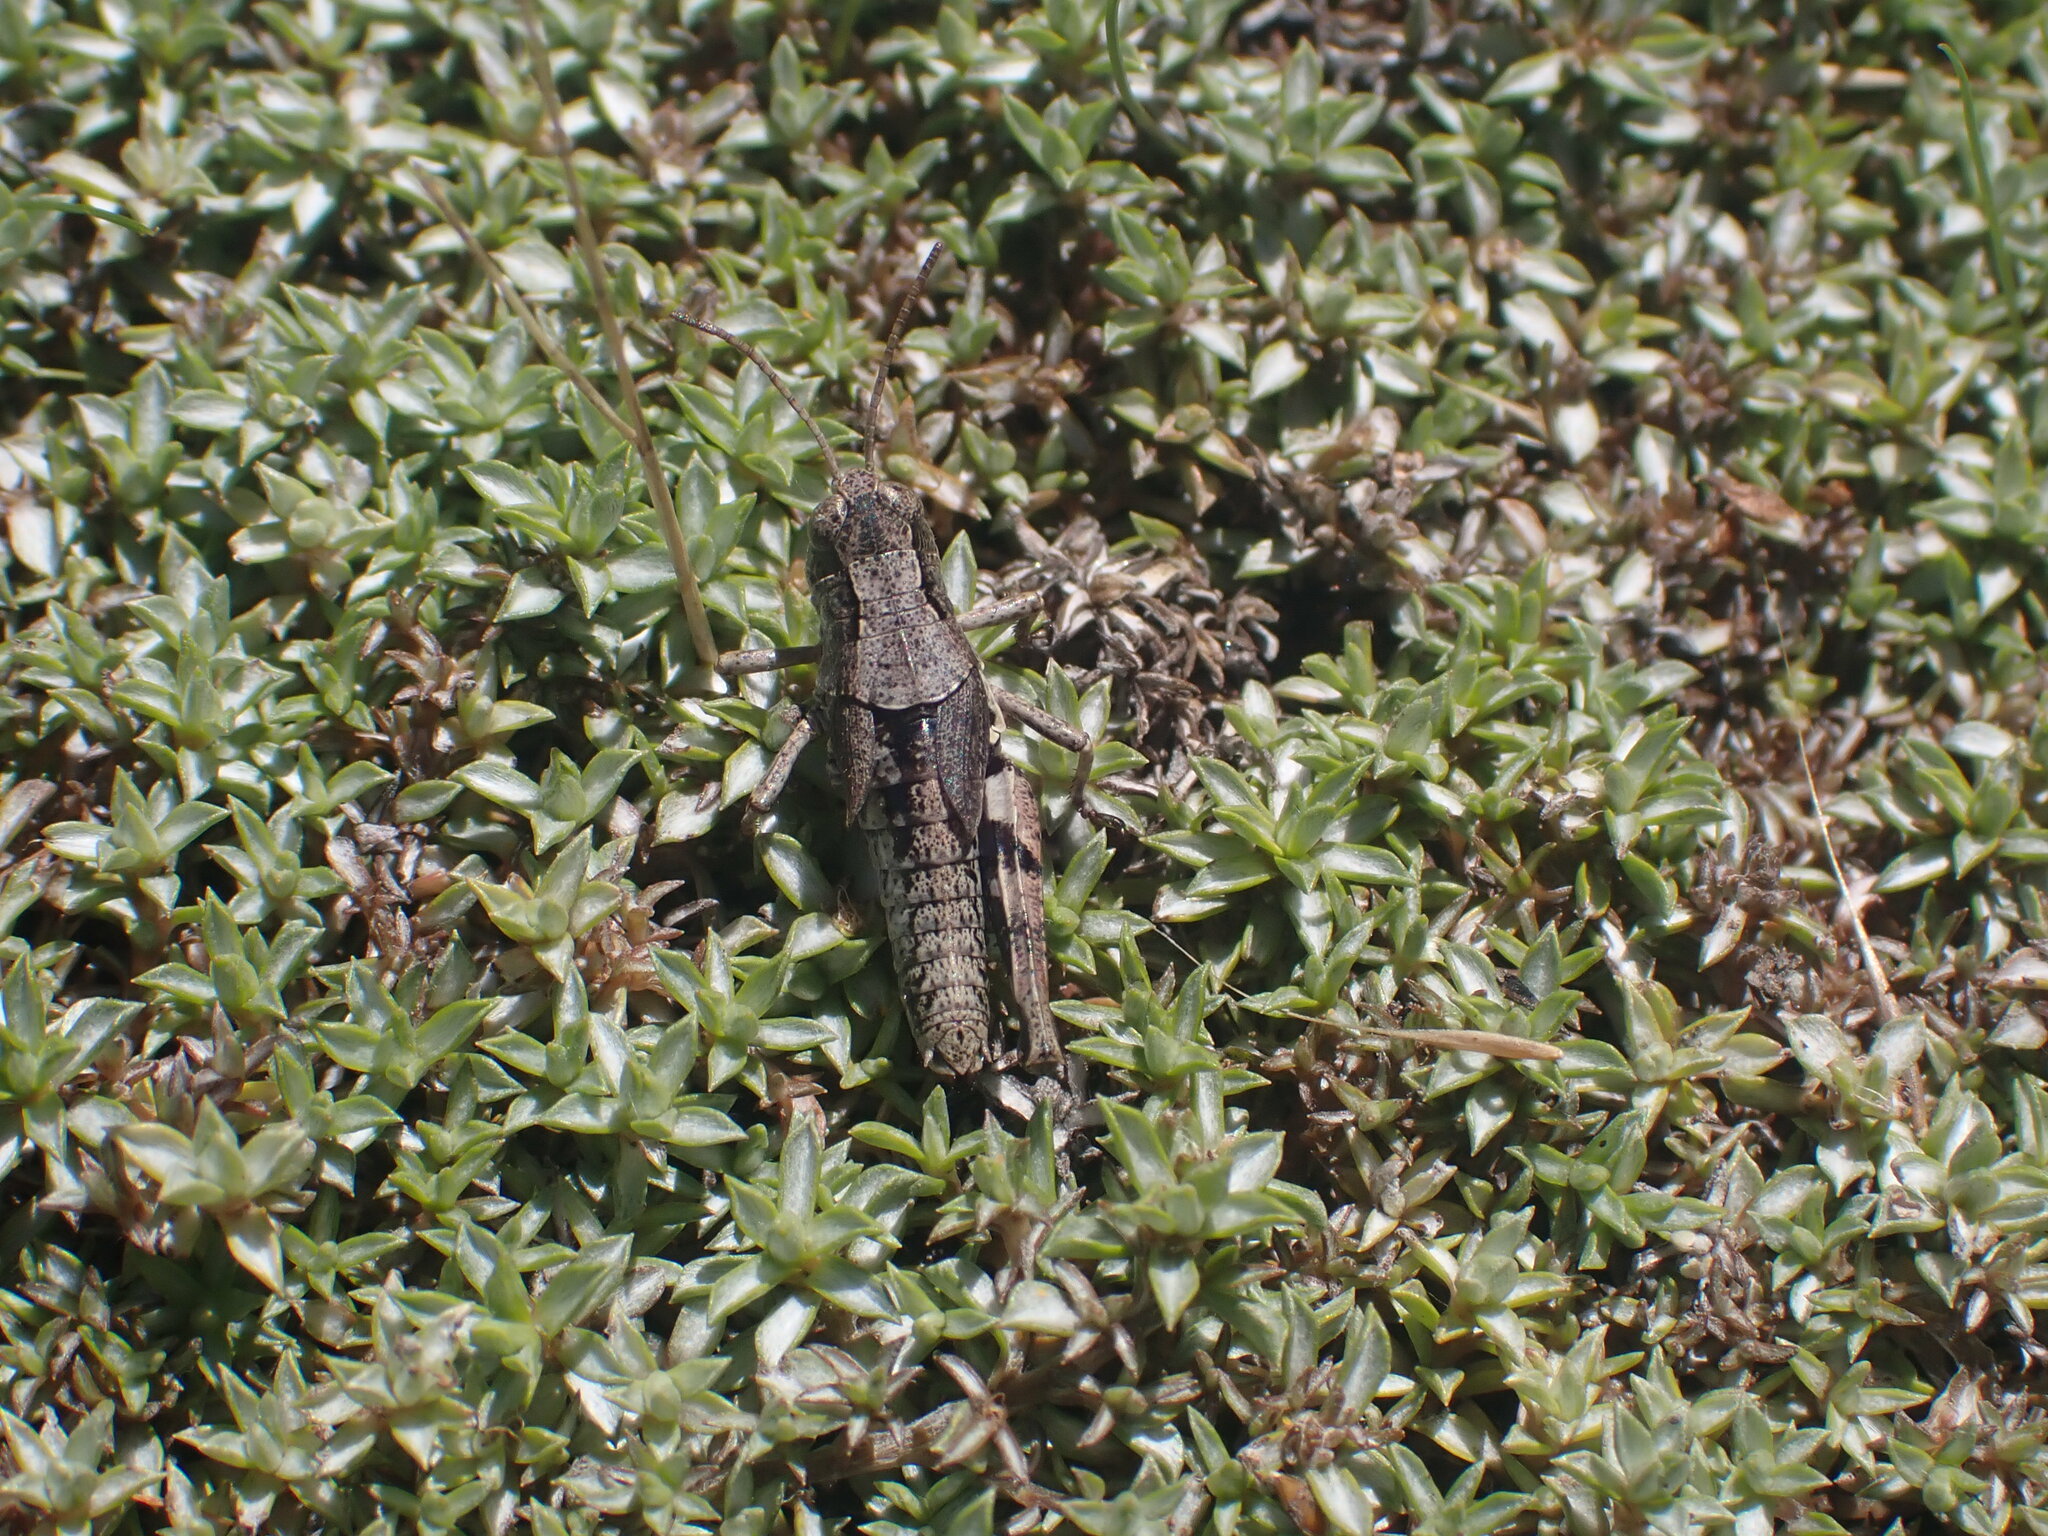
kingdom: Animalia
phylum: Arthropoda
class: Insecta
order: Orthoptera
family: Acrididae
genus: Phaulacridium
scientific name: Phaulacridium marginale
